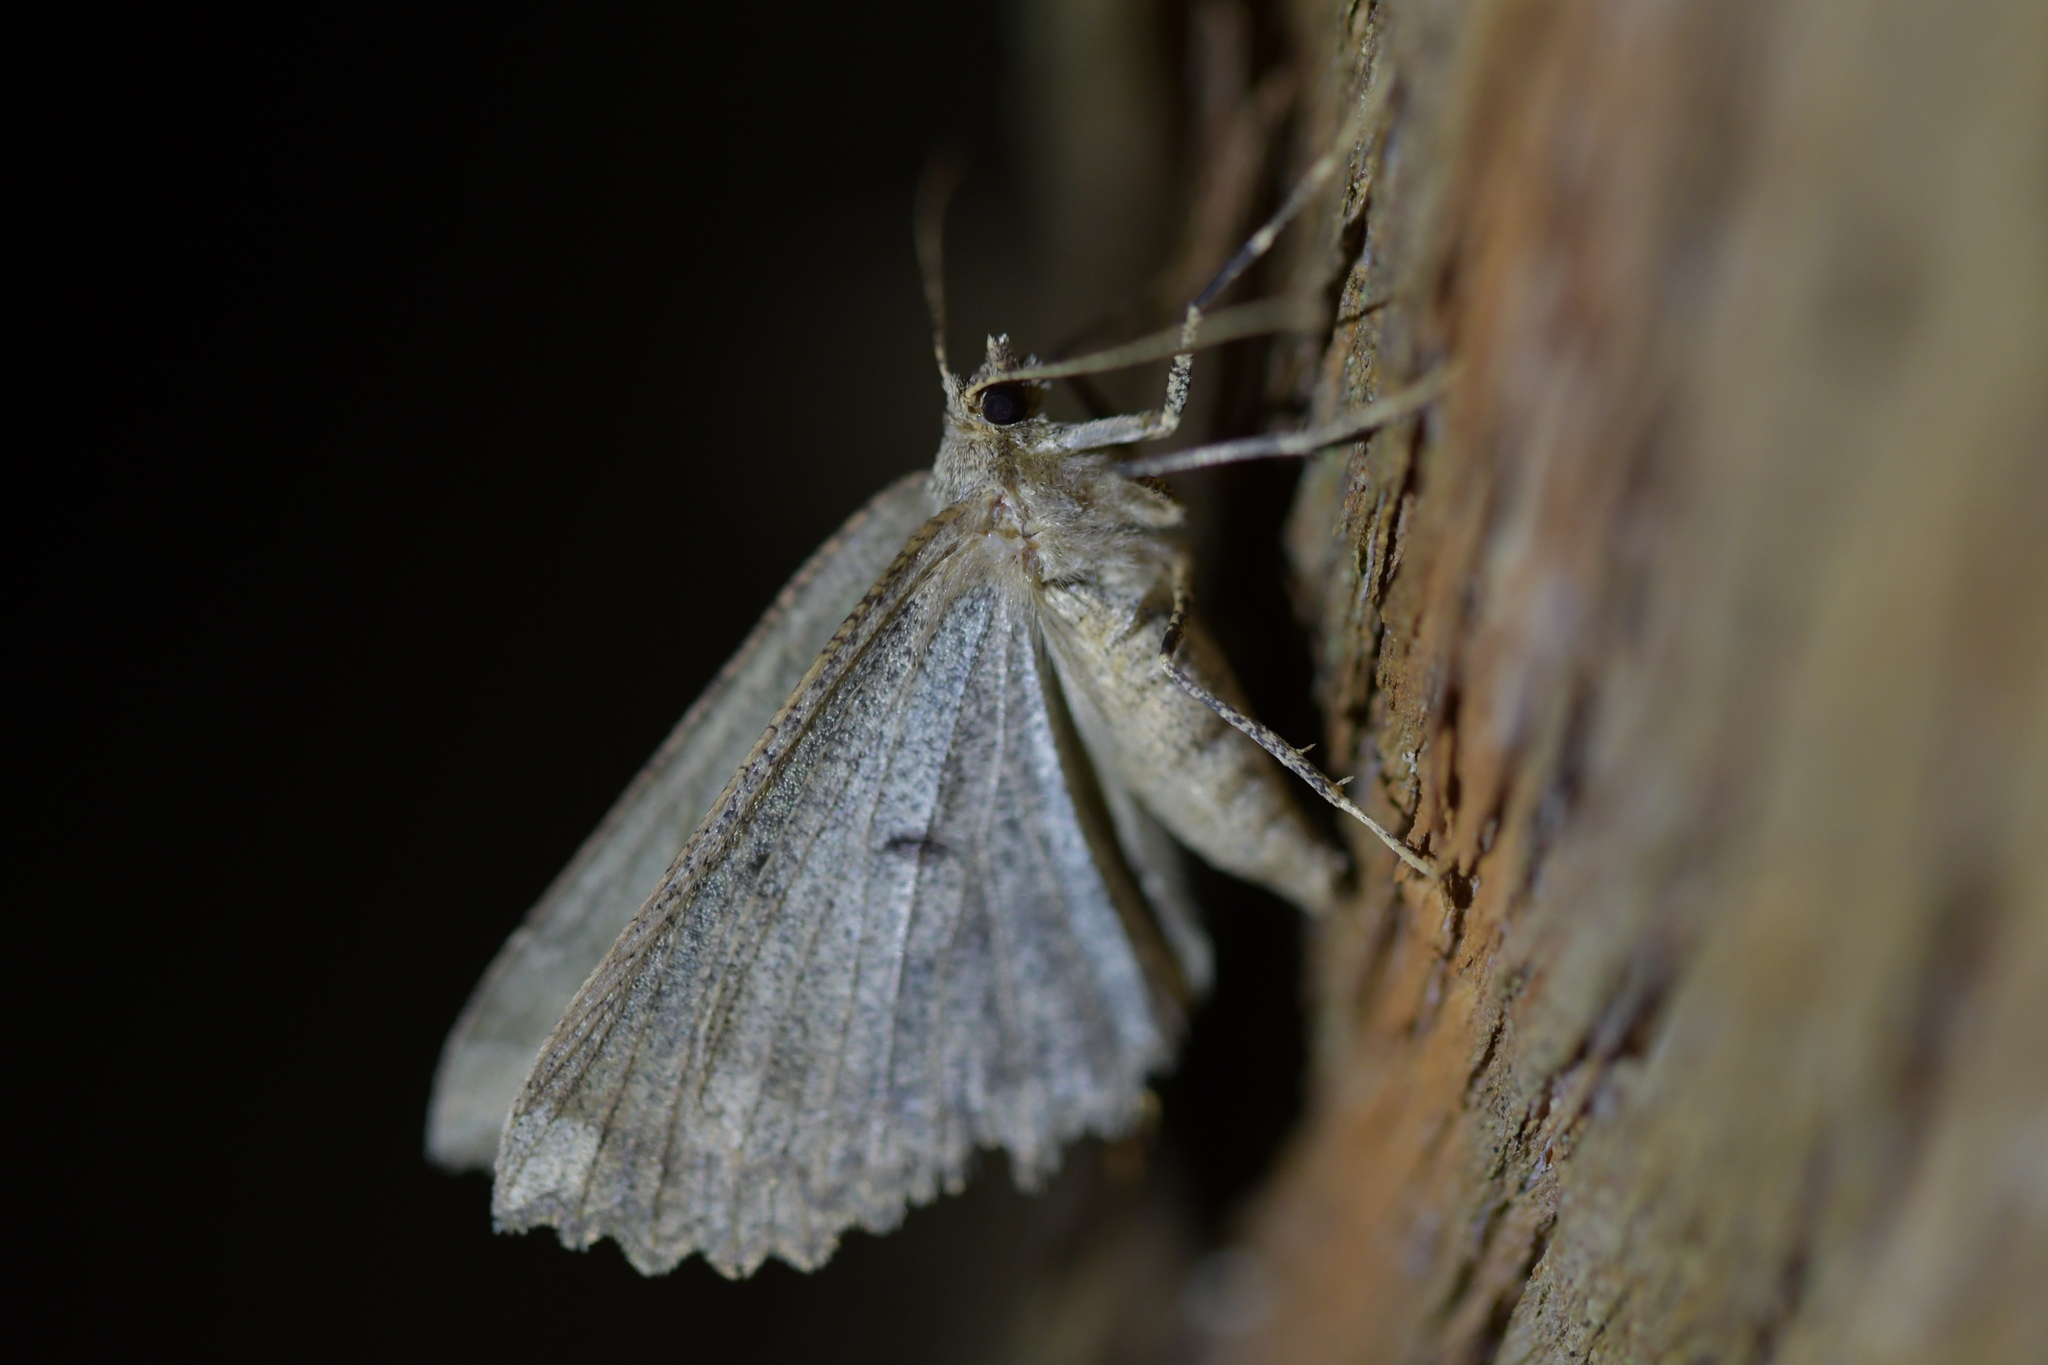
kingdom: Animalia
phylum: Arthropoda
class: Insecta
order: Lepidoptera
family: Geometridae
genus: Cleora
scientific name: Cleora scriptaria
